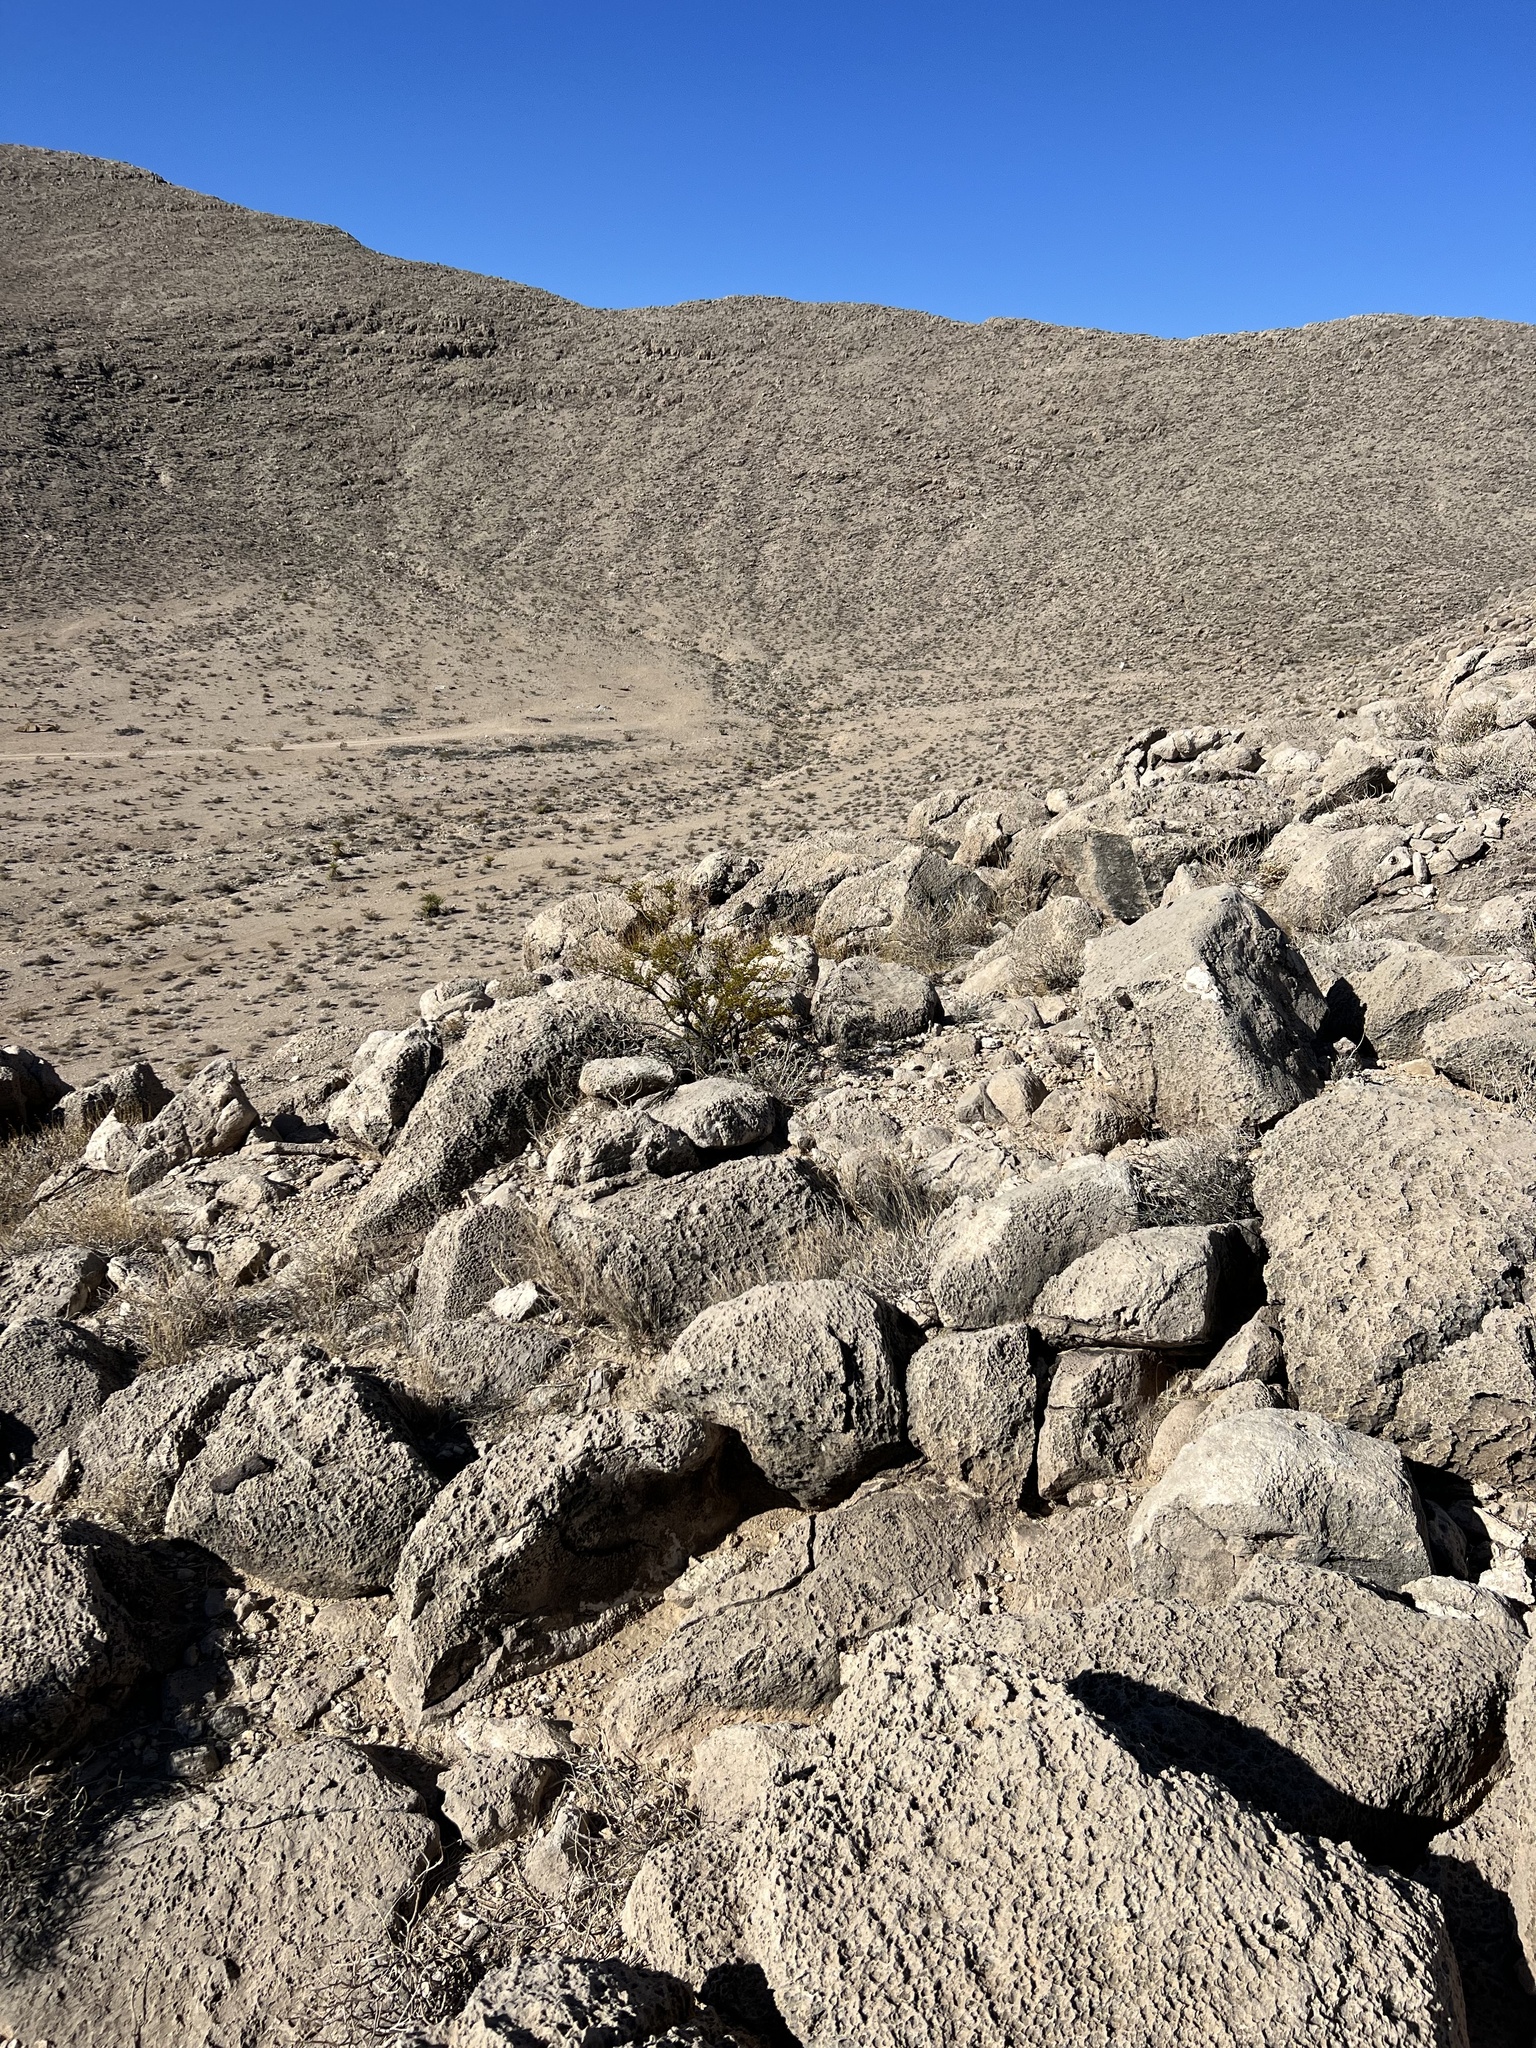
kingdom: Plantae
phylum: Tracheophyta
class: Magnoliopsida
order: Zygophyllales
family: Zygophyllaceae
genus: Larrea
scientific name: Larrea tridentata
